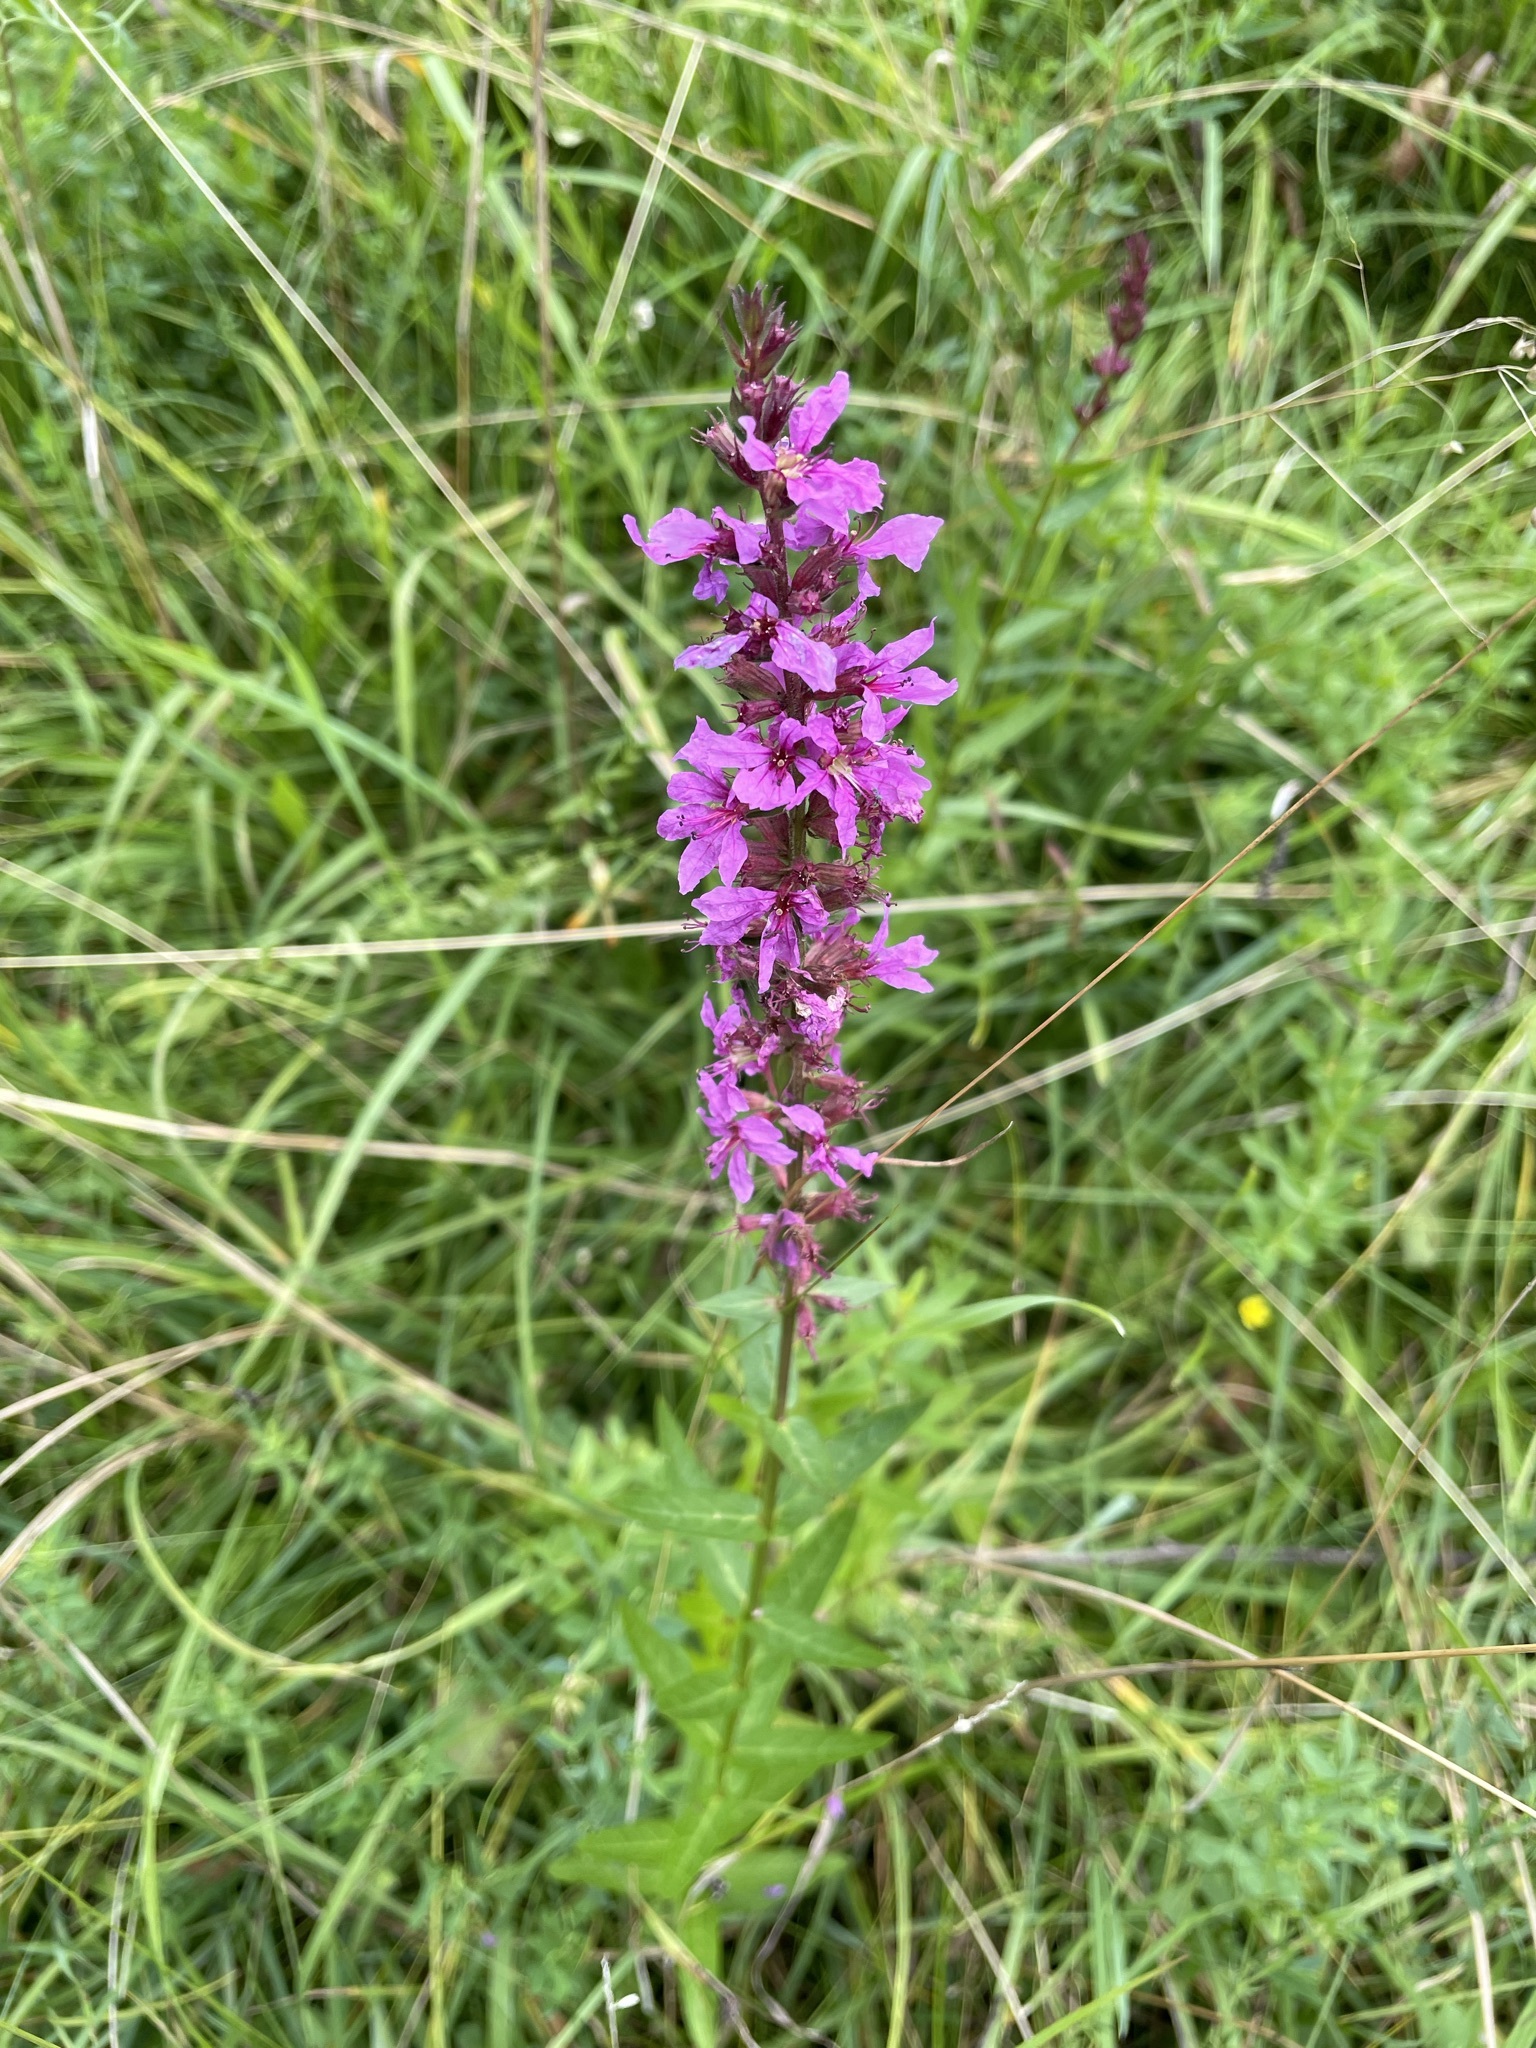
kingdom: Plantae
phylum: Tracheophyta
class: Magnoliopsida
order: Myrtales
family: Lythraceae
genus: Lythrum
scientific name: Lythrum salicaria
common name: Purple loosestrife
